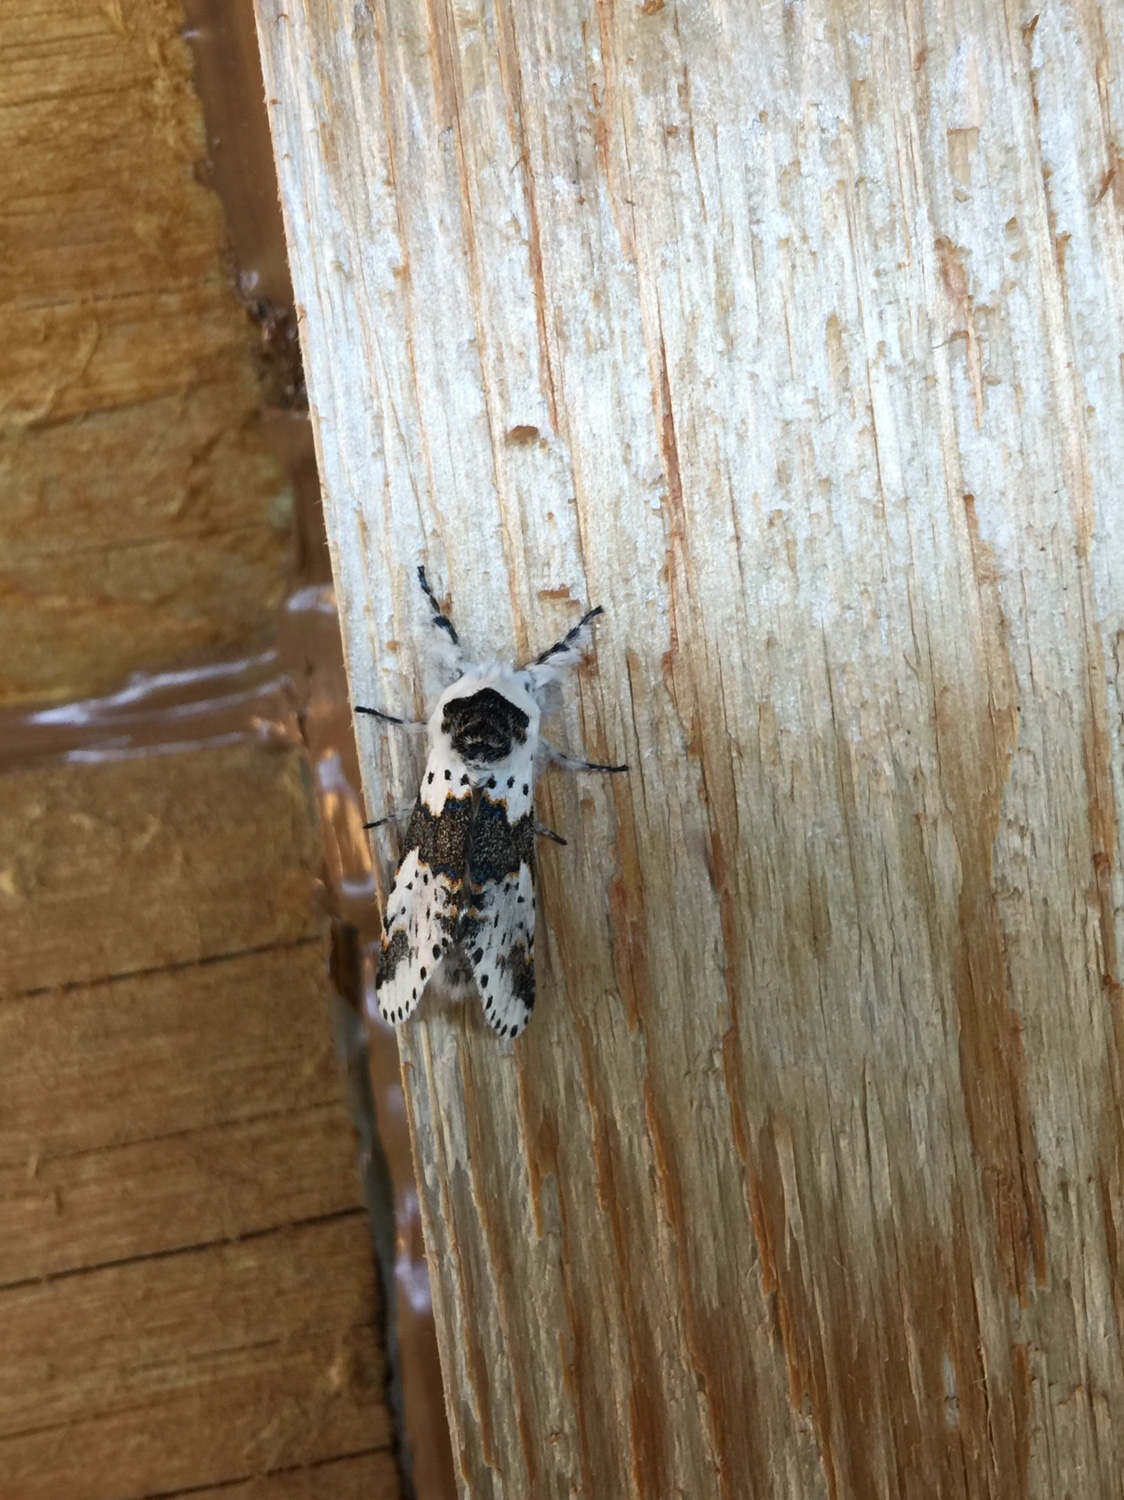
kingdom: Animalia
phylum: Arthropoda
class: Insecta
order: Lepidoptera
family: Notodontidae
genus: Furcula
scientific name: Furcula borealis
